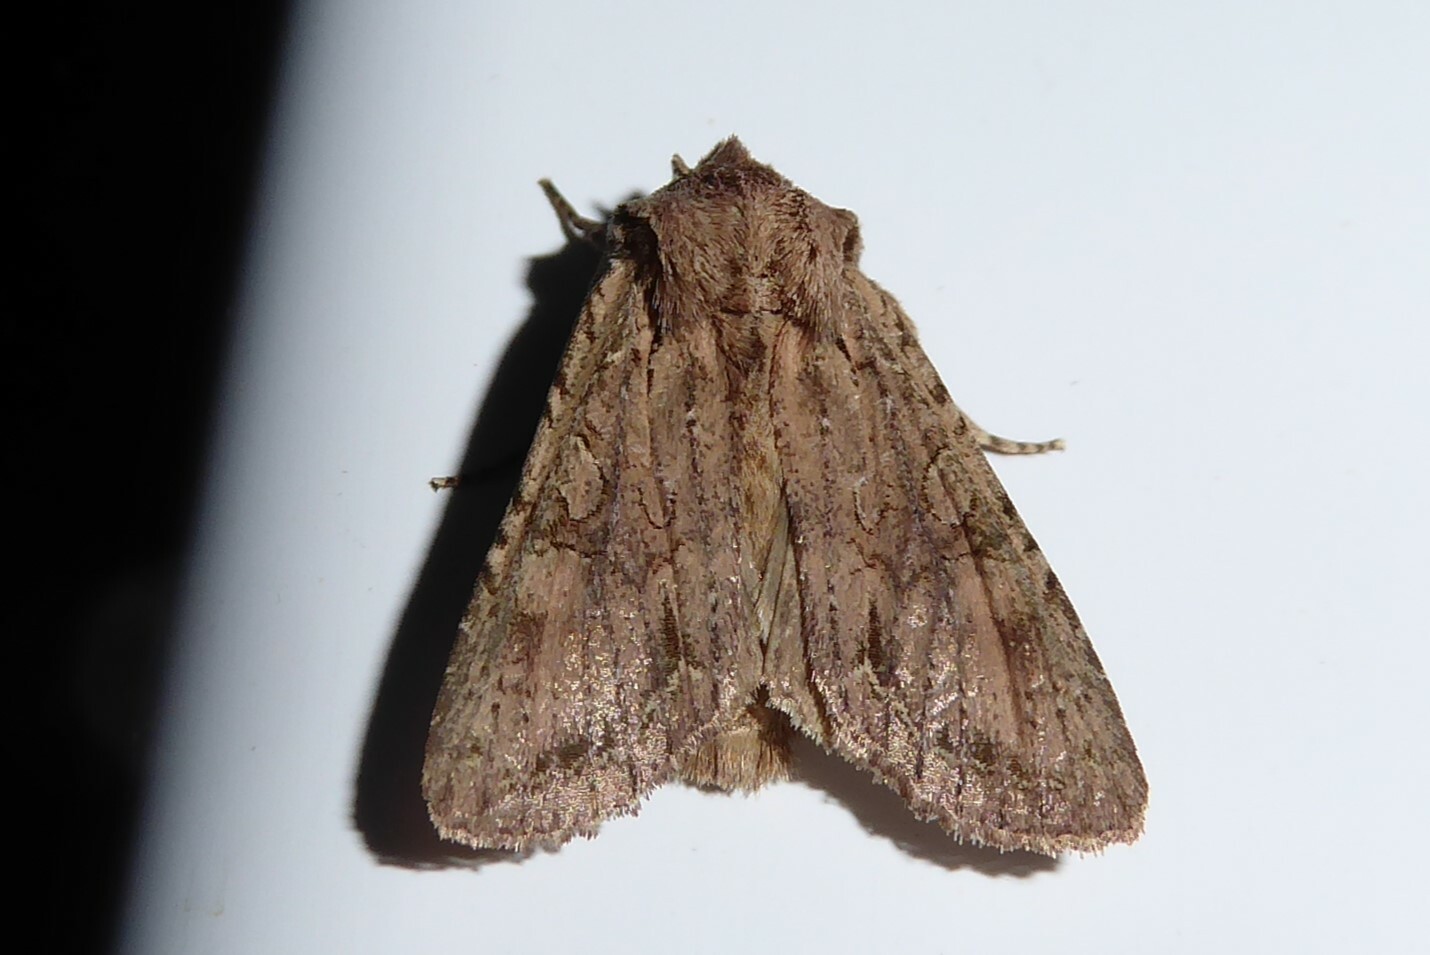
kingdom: Animalia
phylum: Arthropoda
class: Insecta
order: Lepidoptera
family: Noctuidae
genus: Ichneutica
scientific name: Ichneutica
